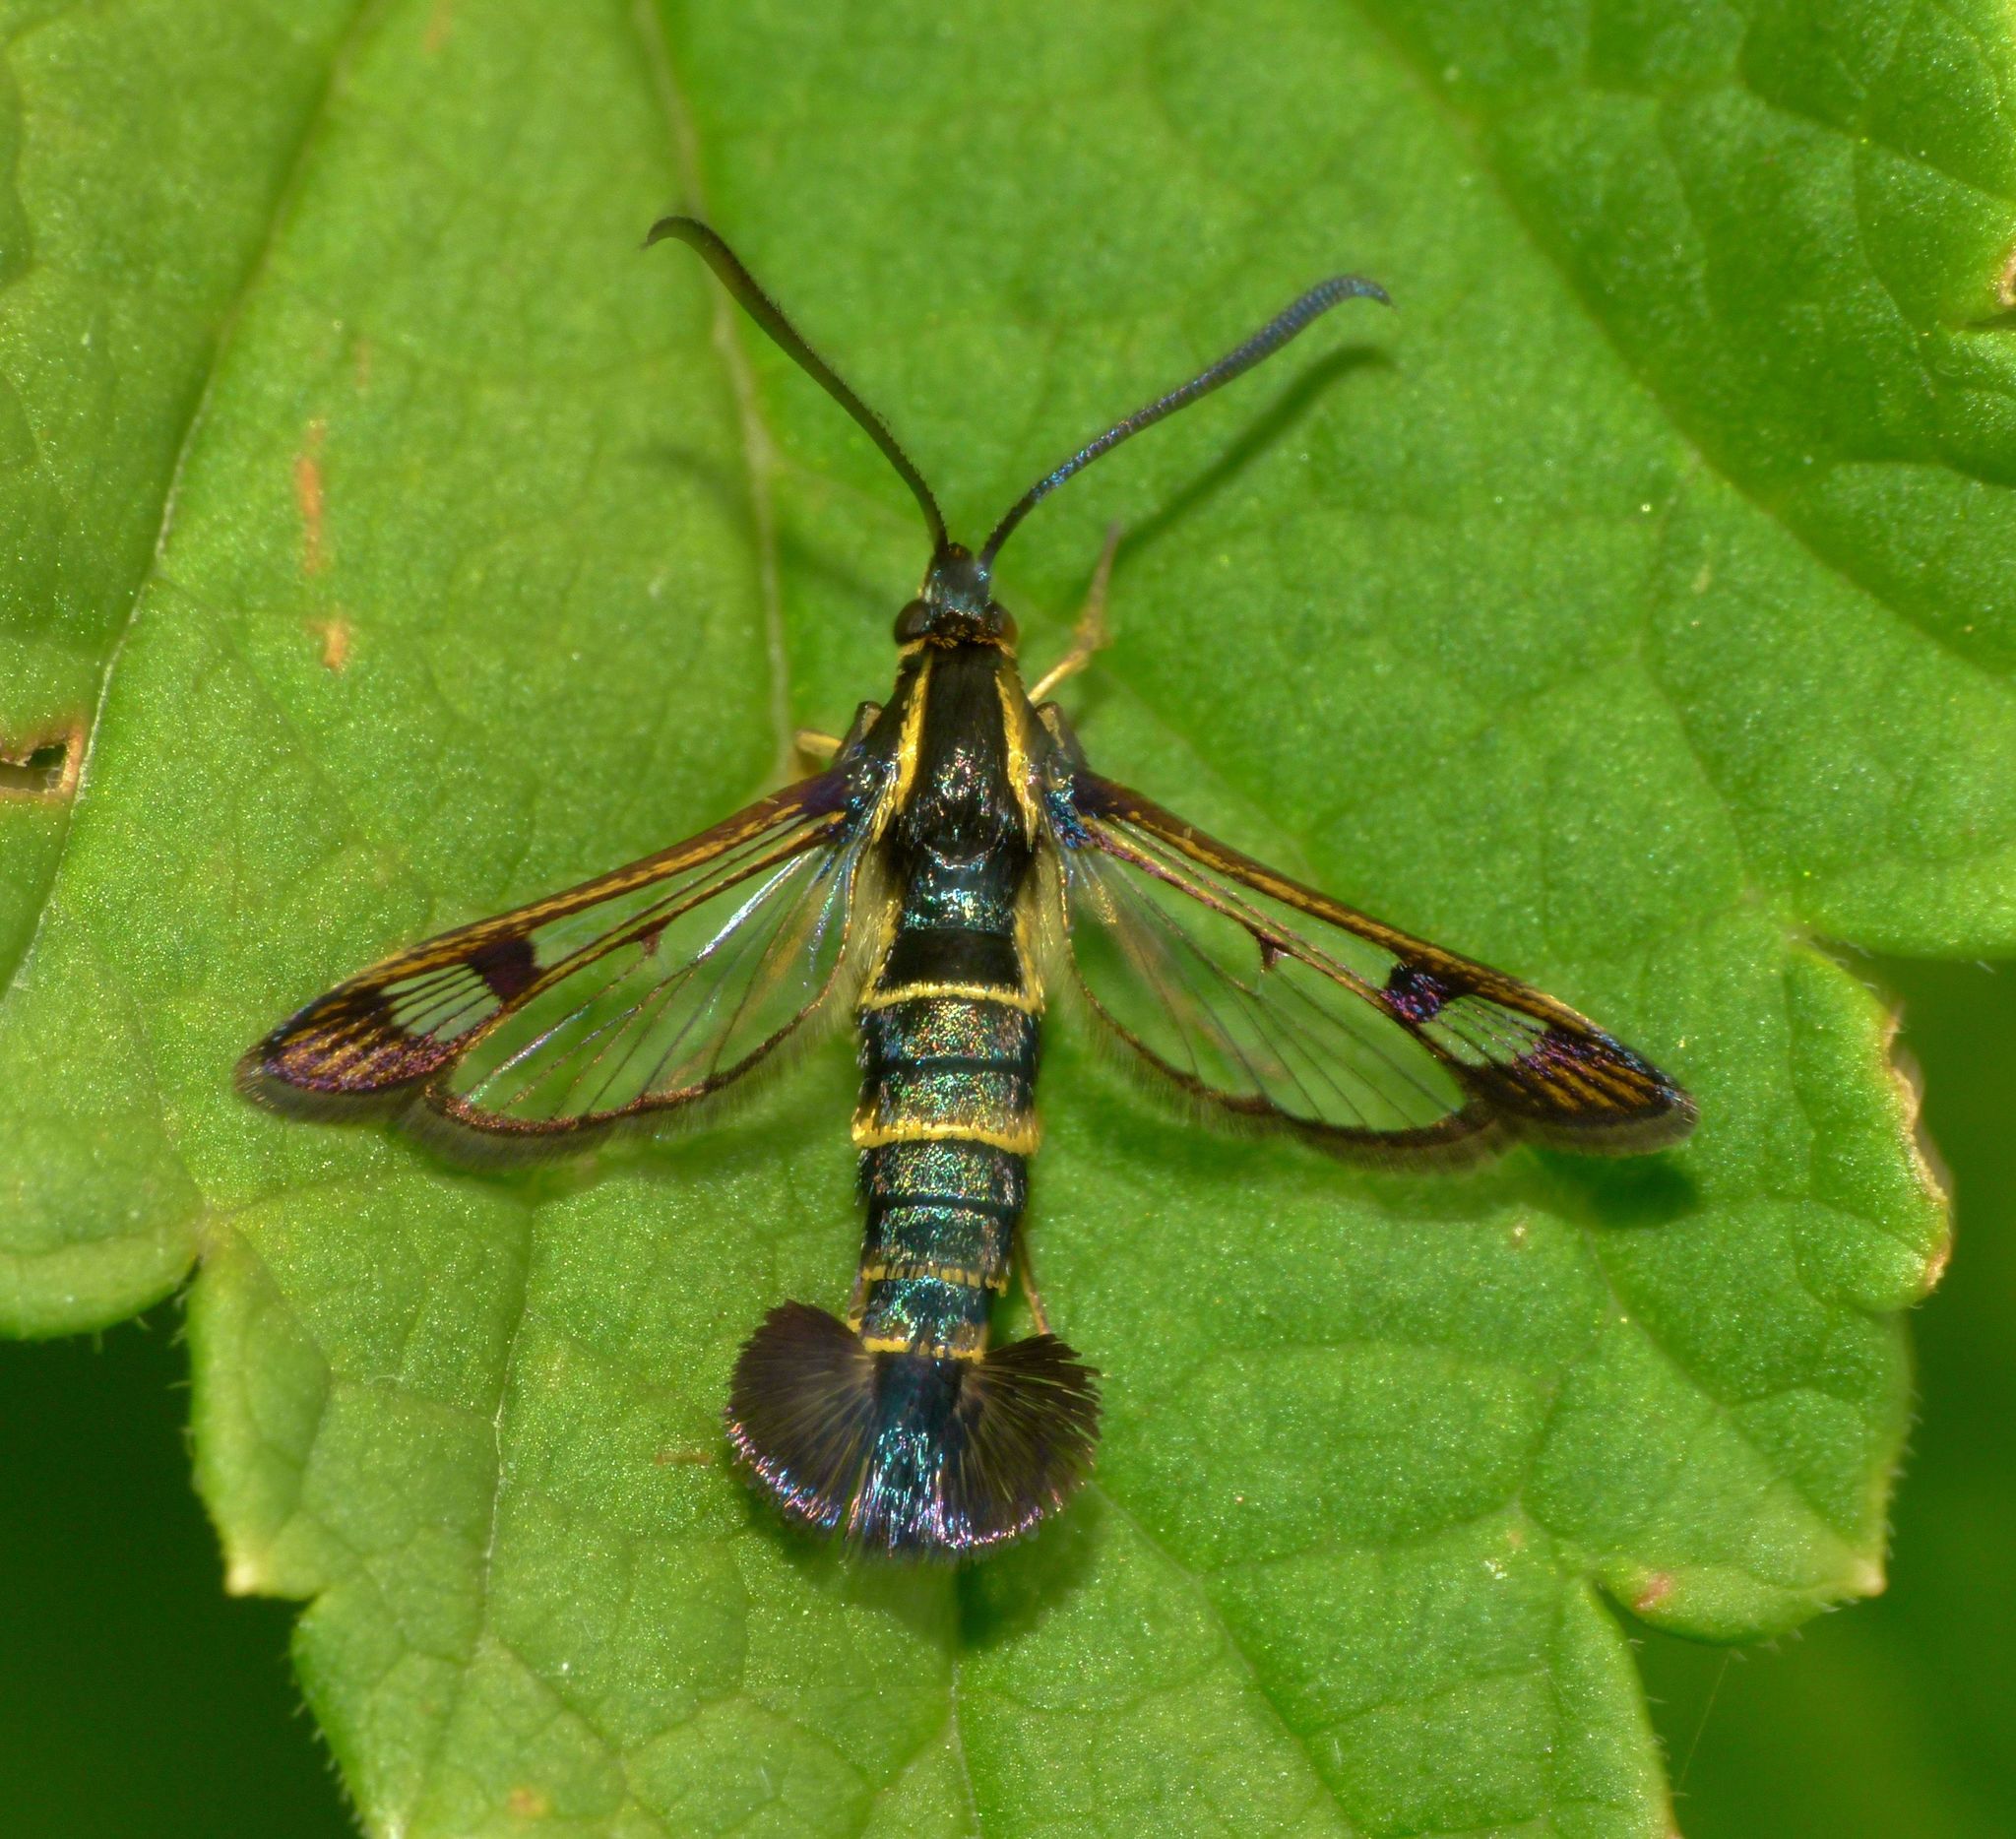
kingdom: Animalia
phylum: Arthropoda
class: Insecta
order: Lepidoptera
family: Sesiidae
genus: Synanthedon
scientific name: Synanthedon tipuliformis
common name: Currant clearwing
